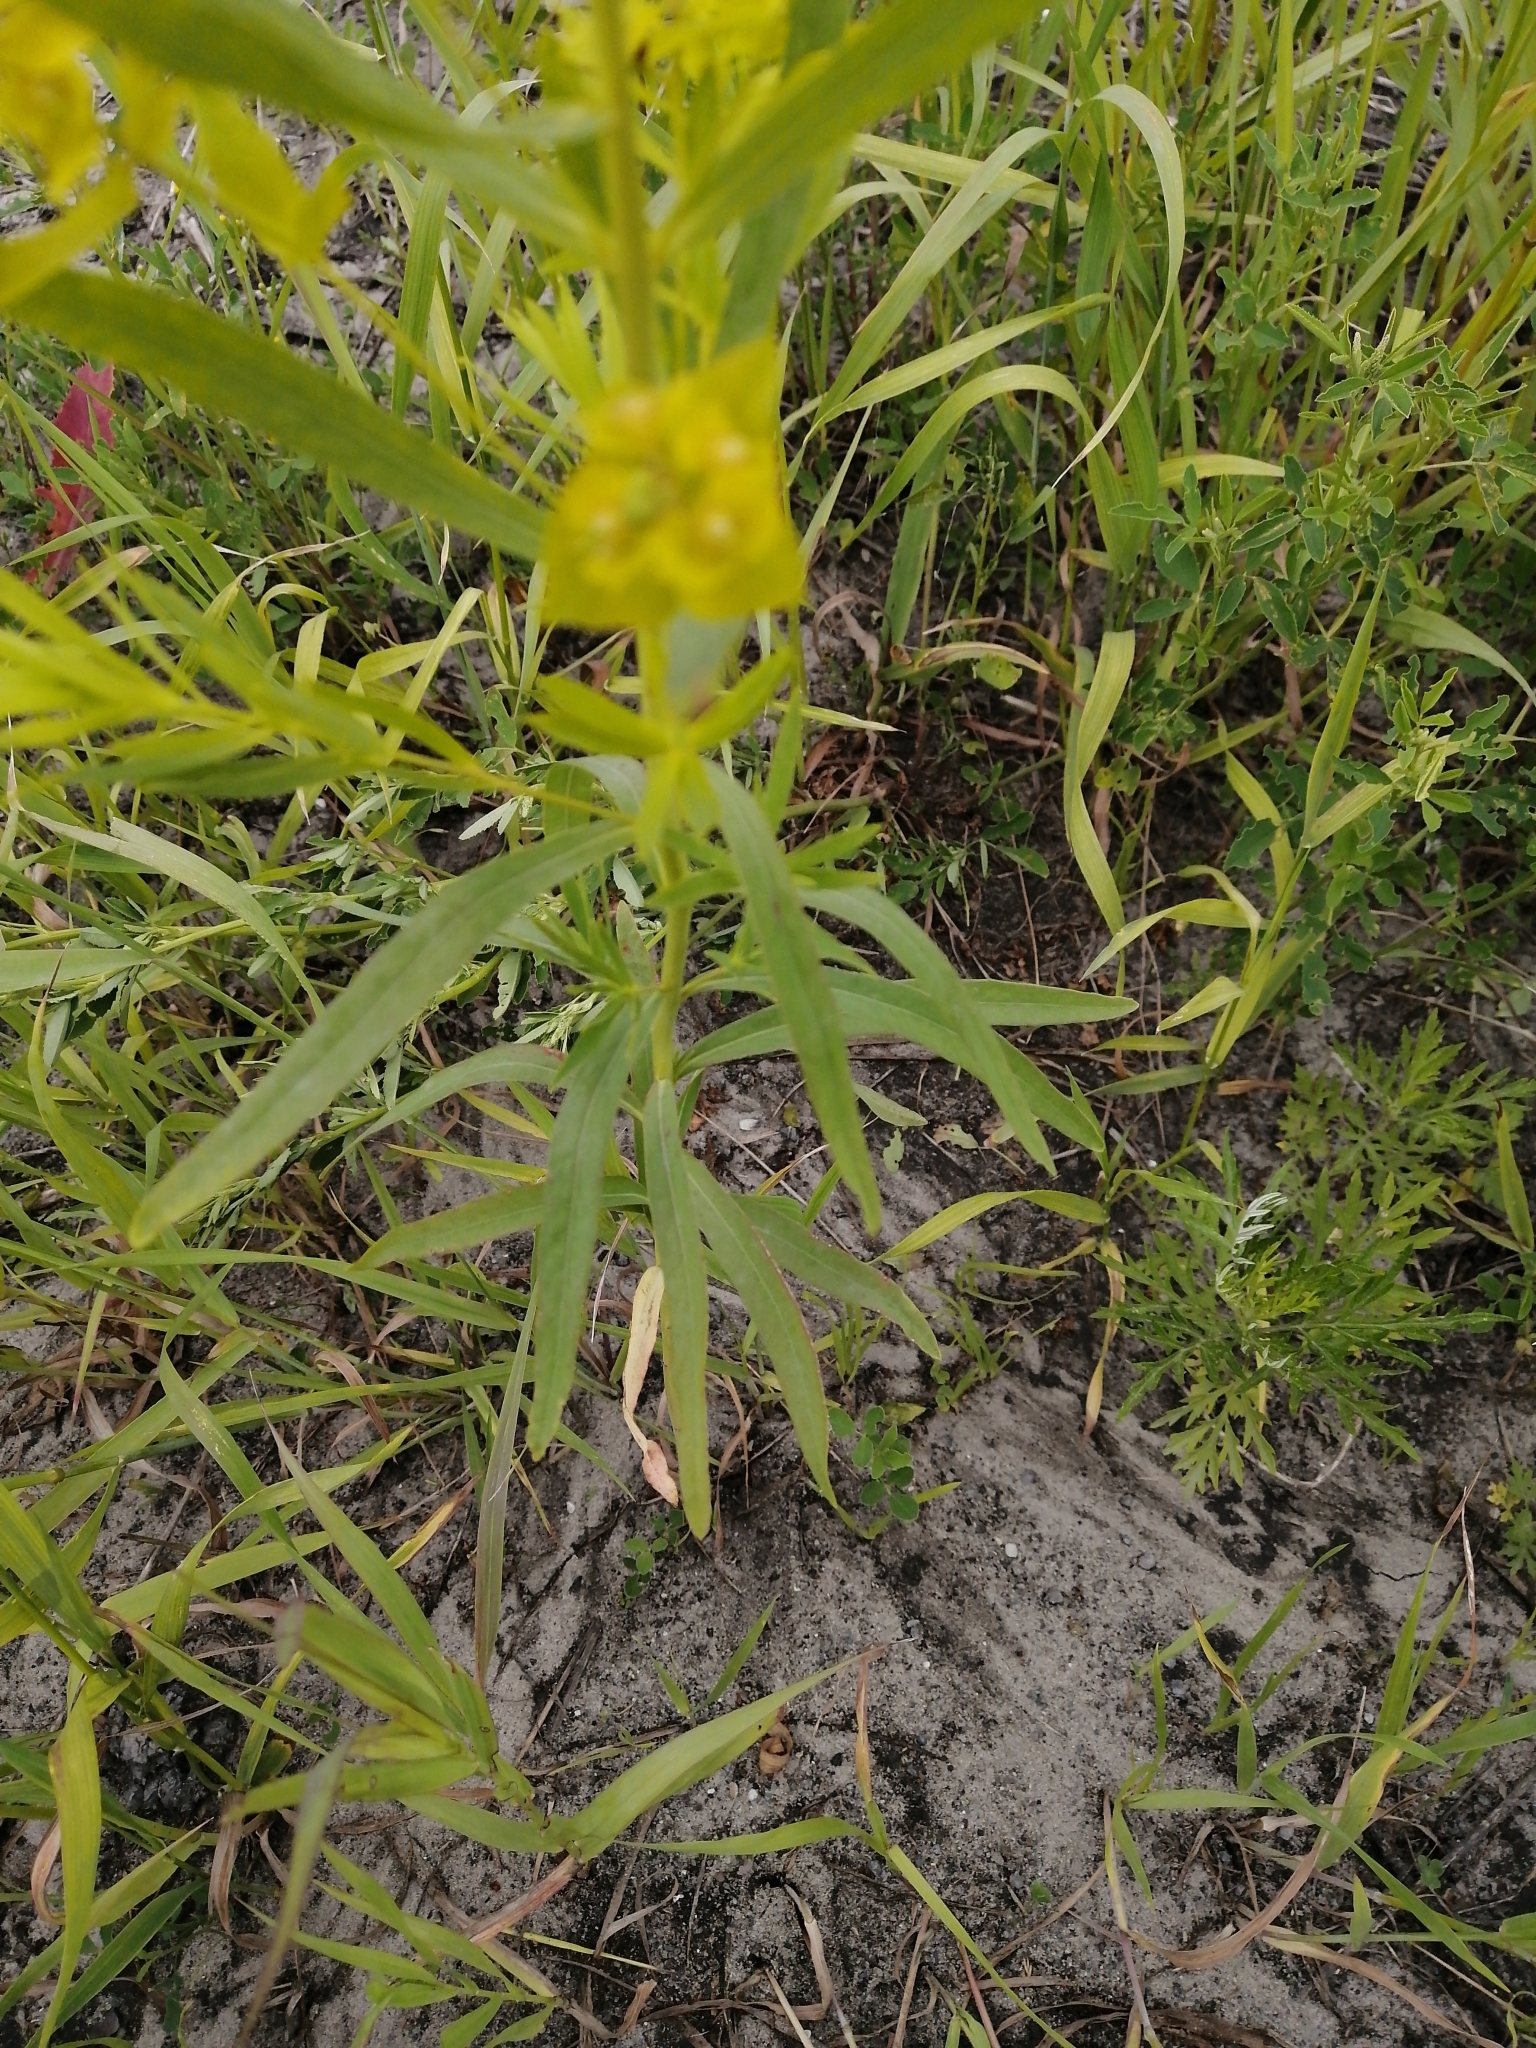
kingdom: Plantae
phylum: Tracheophyta
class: Magnoliopsida
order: Malpighiales
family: Euphorbiaceae
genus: Euphorbia
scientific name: Euphorbia virgata
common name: Leafy spurge
